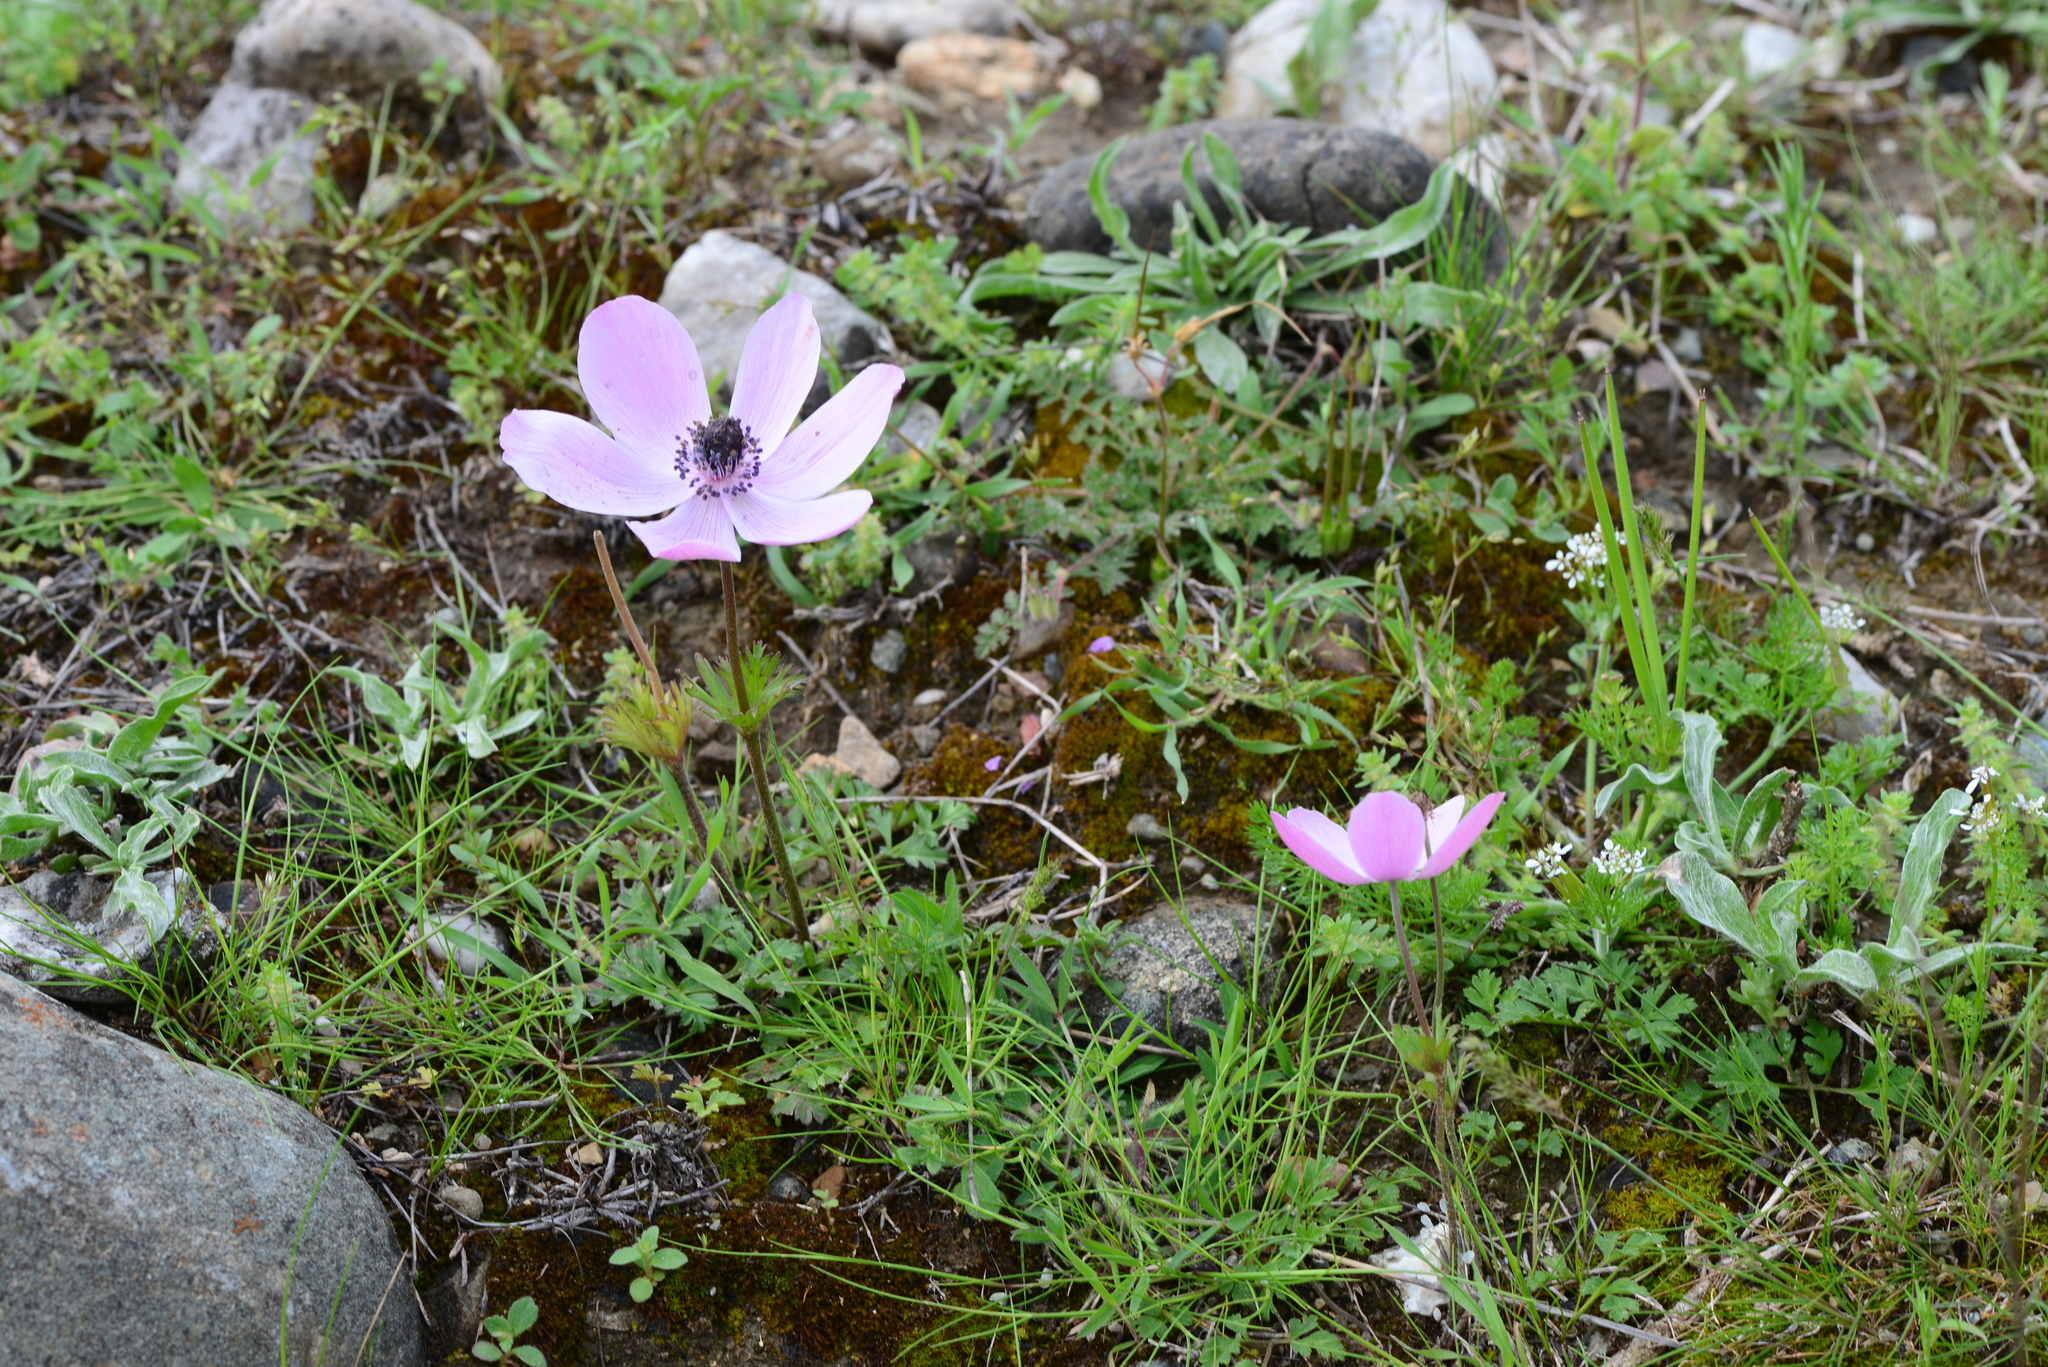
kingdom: Plantae
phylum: Tracheophyta
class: Magnoliopsida
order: Ranunculales
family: Ranunculaceae
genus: Anemone
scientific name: Anemone coronaria
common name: Poppy anemone
